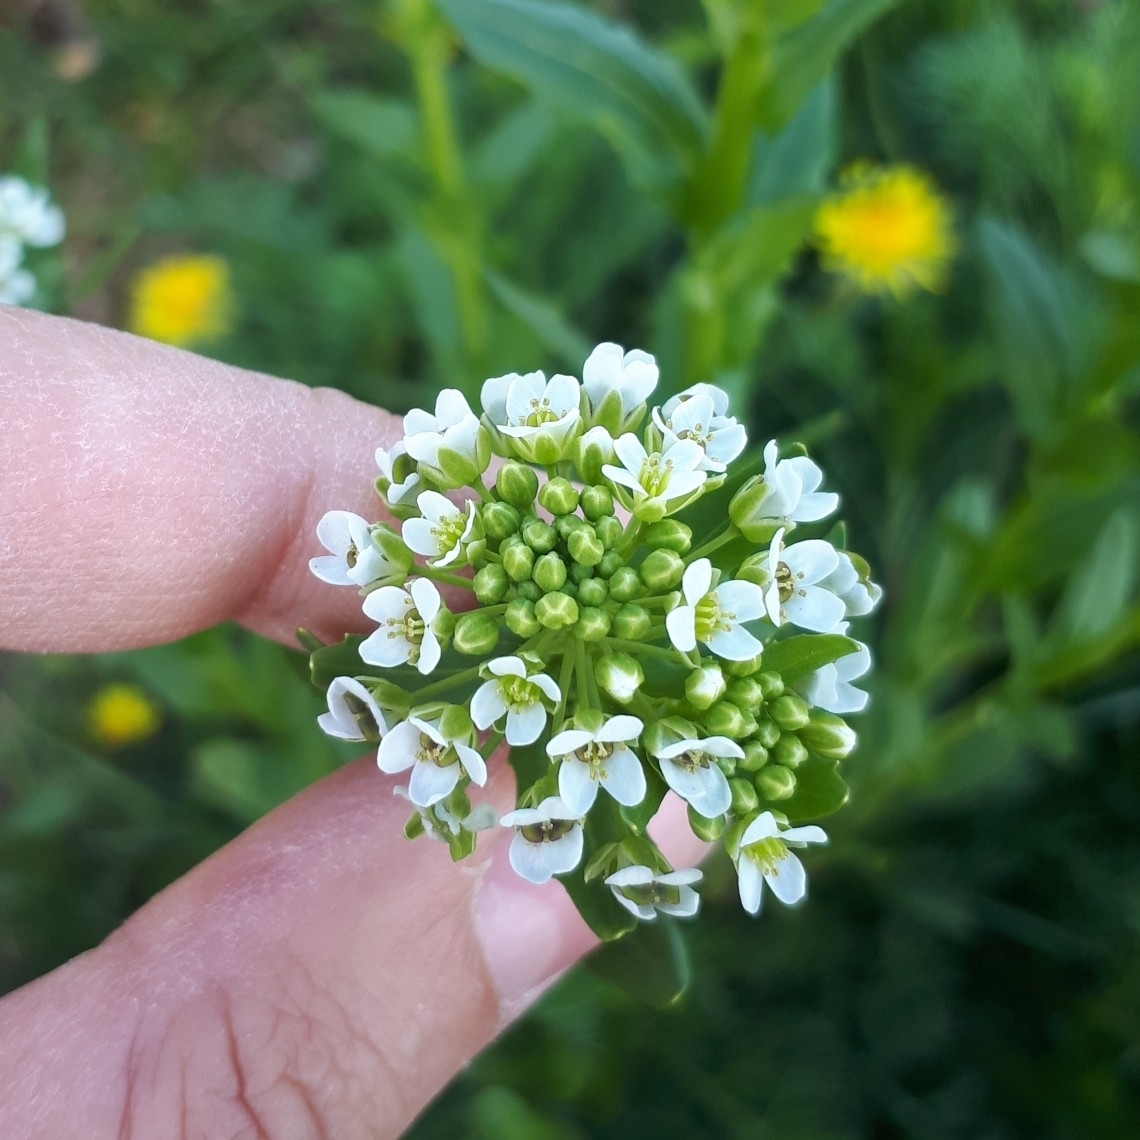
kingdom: Plantae
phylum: Tracheophyta
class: Magnoliopsida
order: Brassicales
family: Brassicaceae
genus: Thlaspi
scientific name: Thlaspi arvense
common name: Field pennycress
